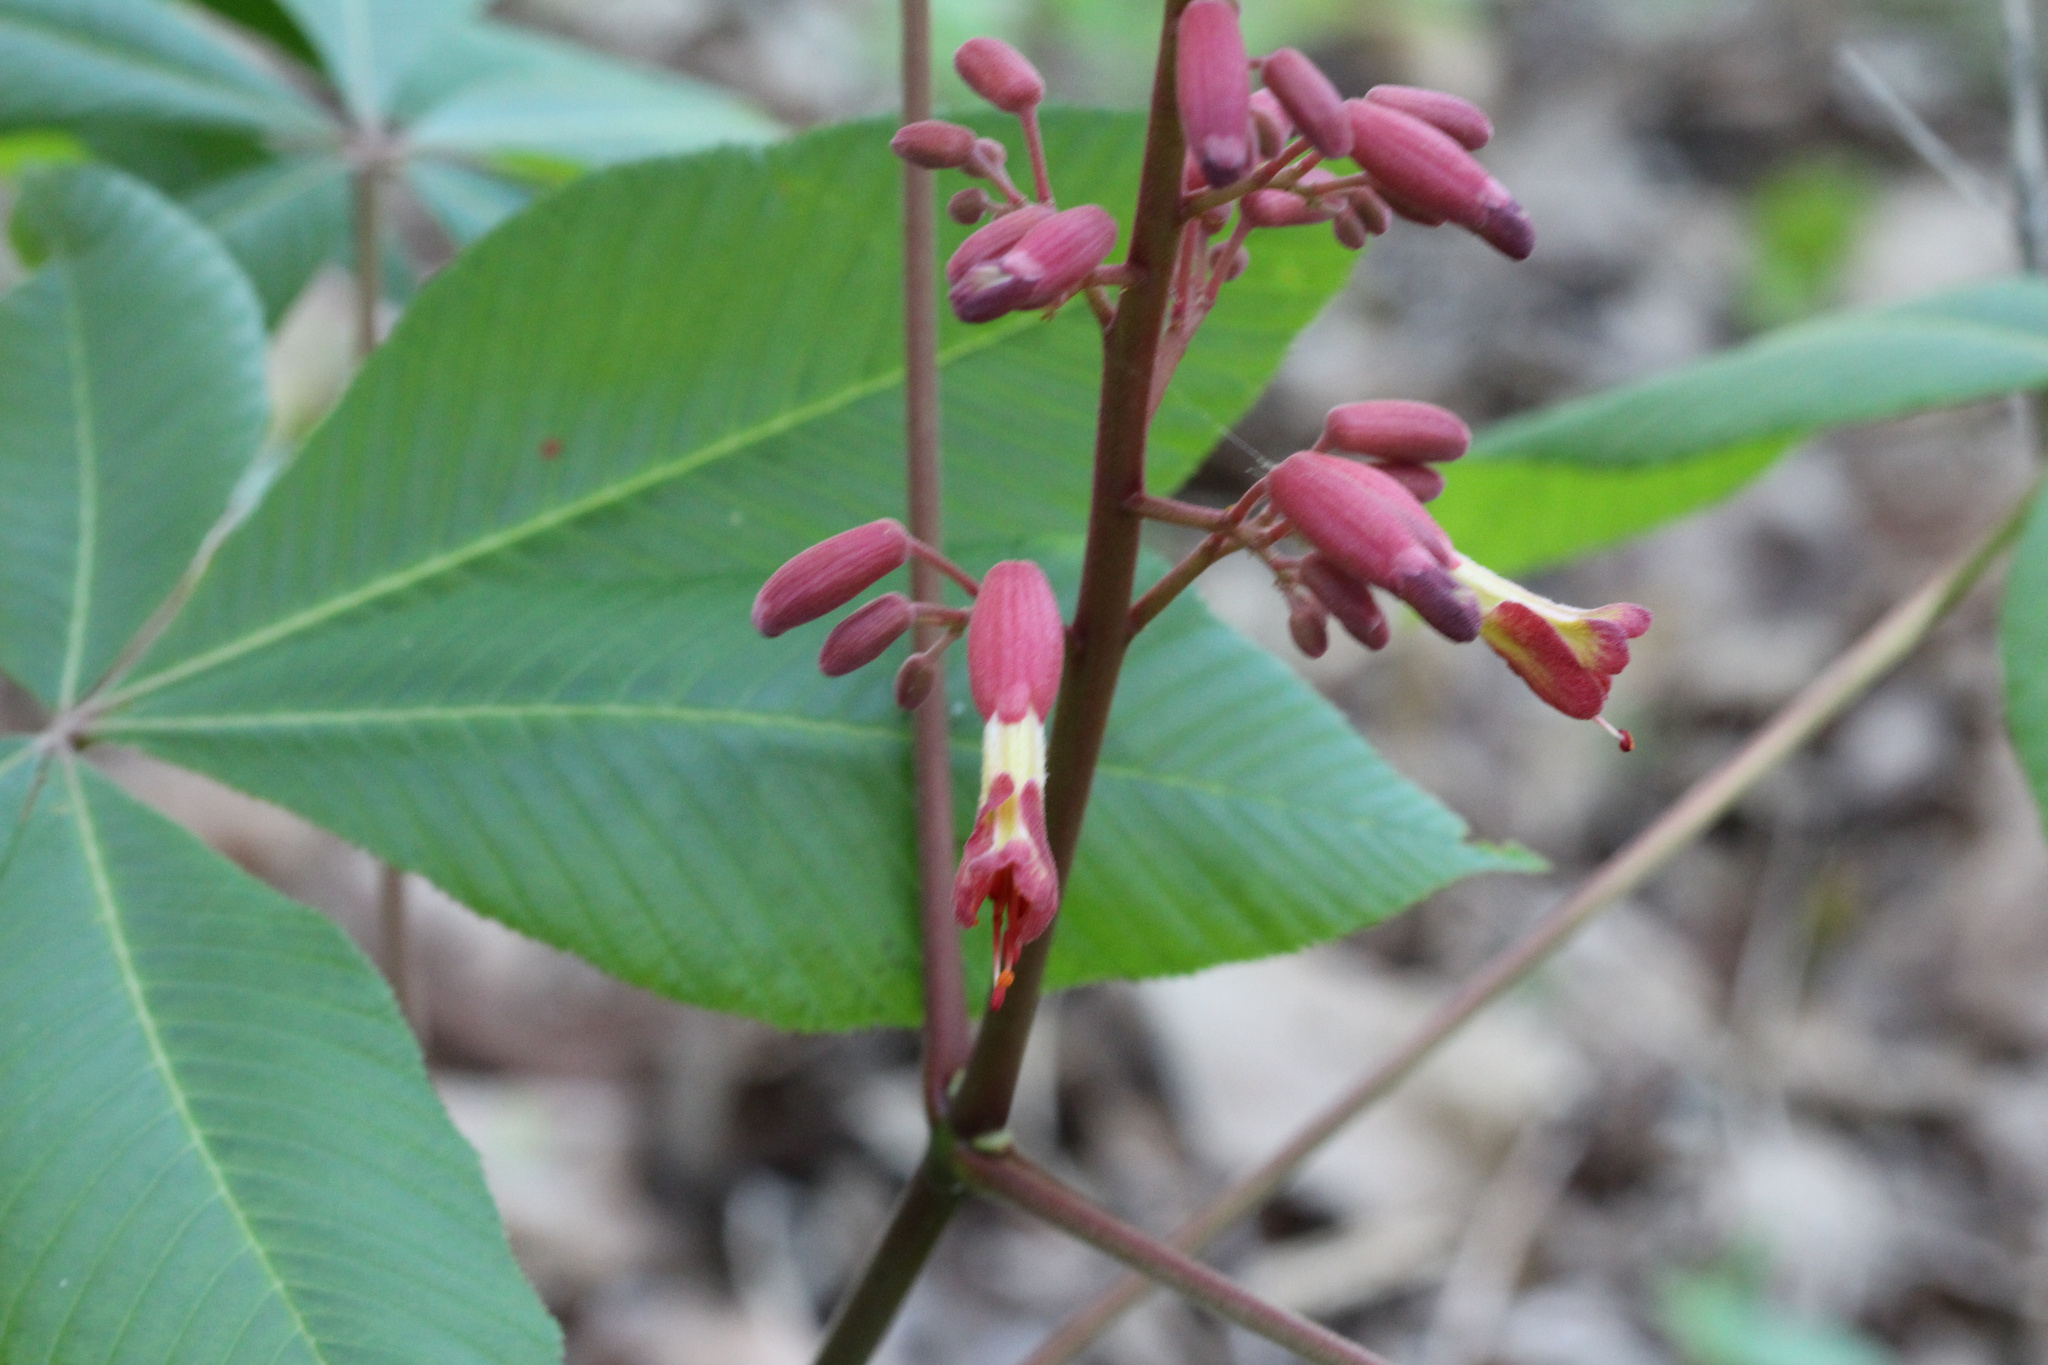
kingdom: Plantae
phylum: Tracheophyta
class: Magnoliopsida
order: Sapindales
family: Sapindaceae
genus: Aesculus
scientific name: Aesculus pavia
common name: Red buckeye
